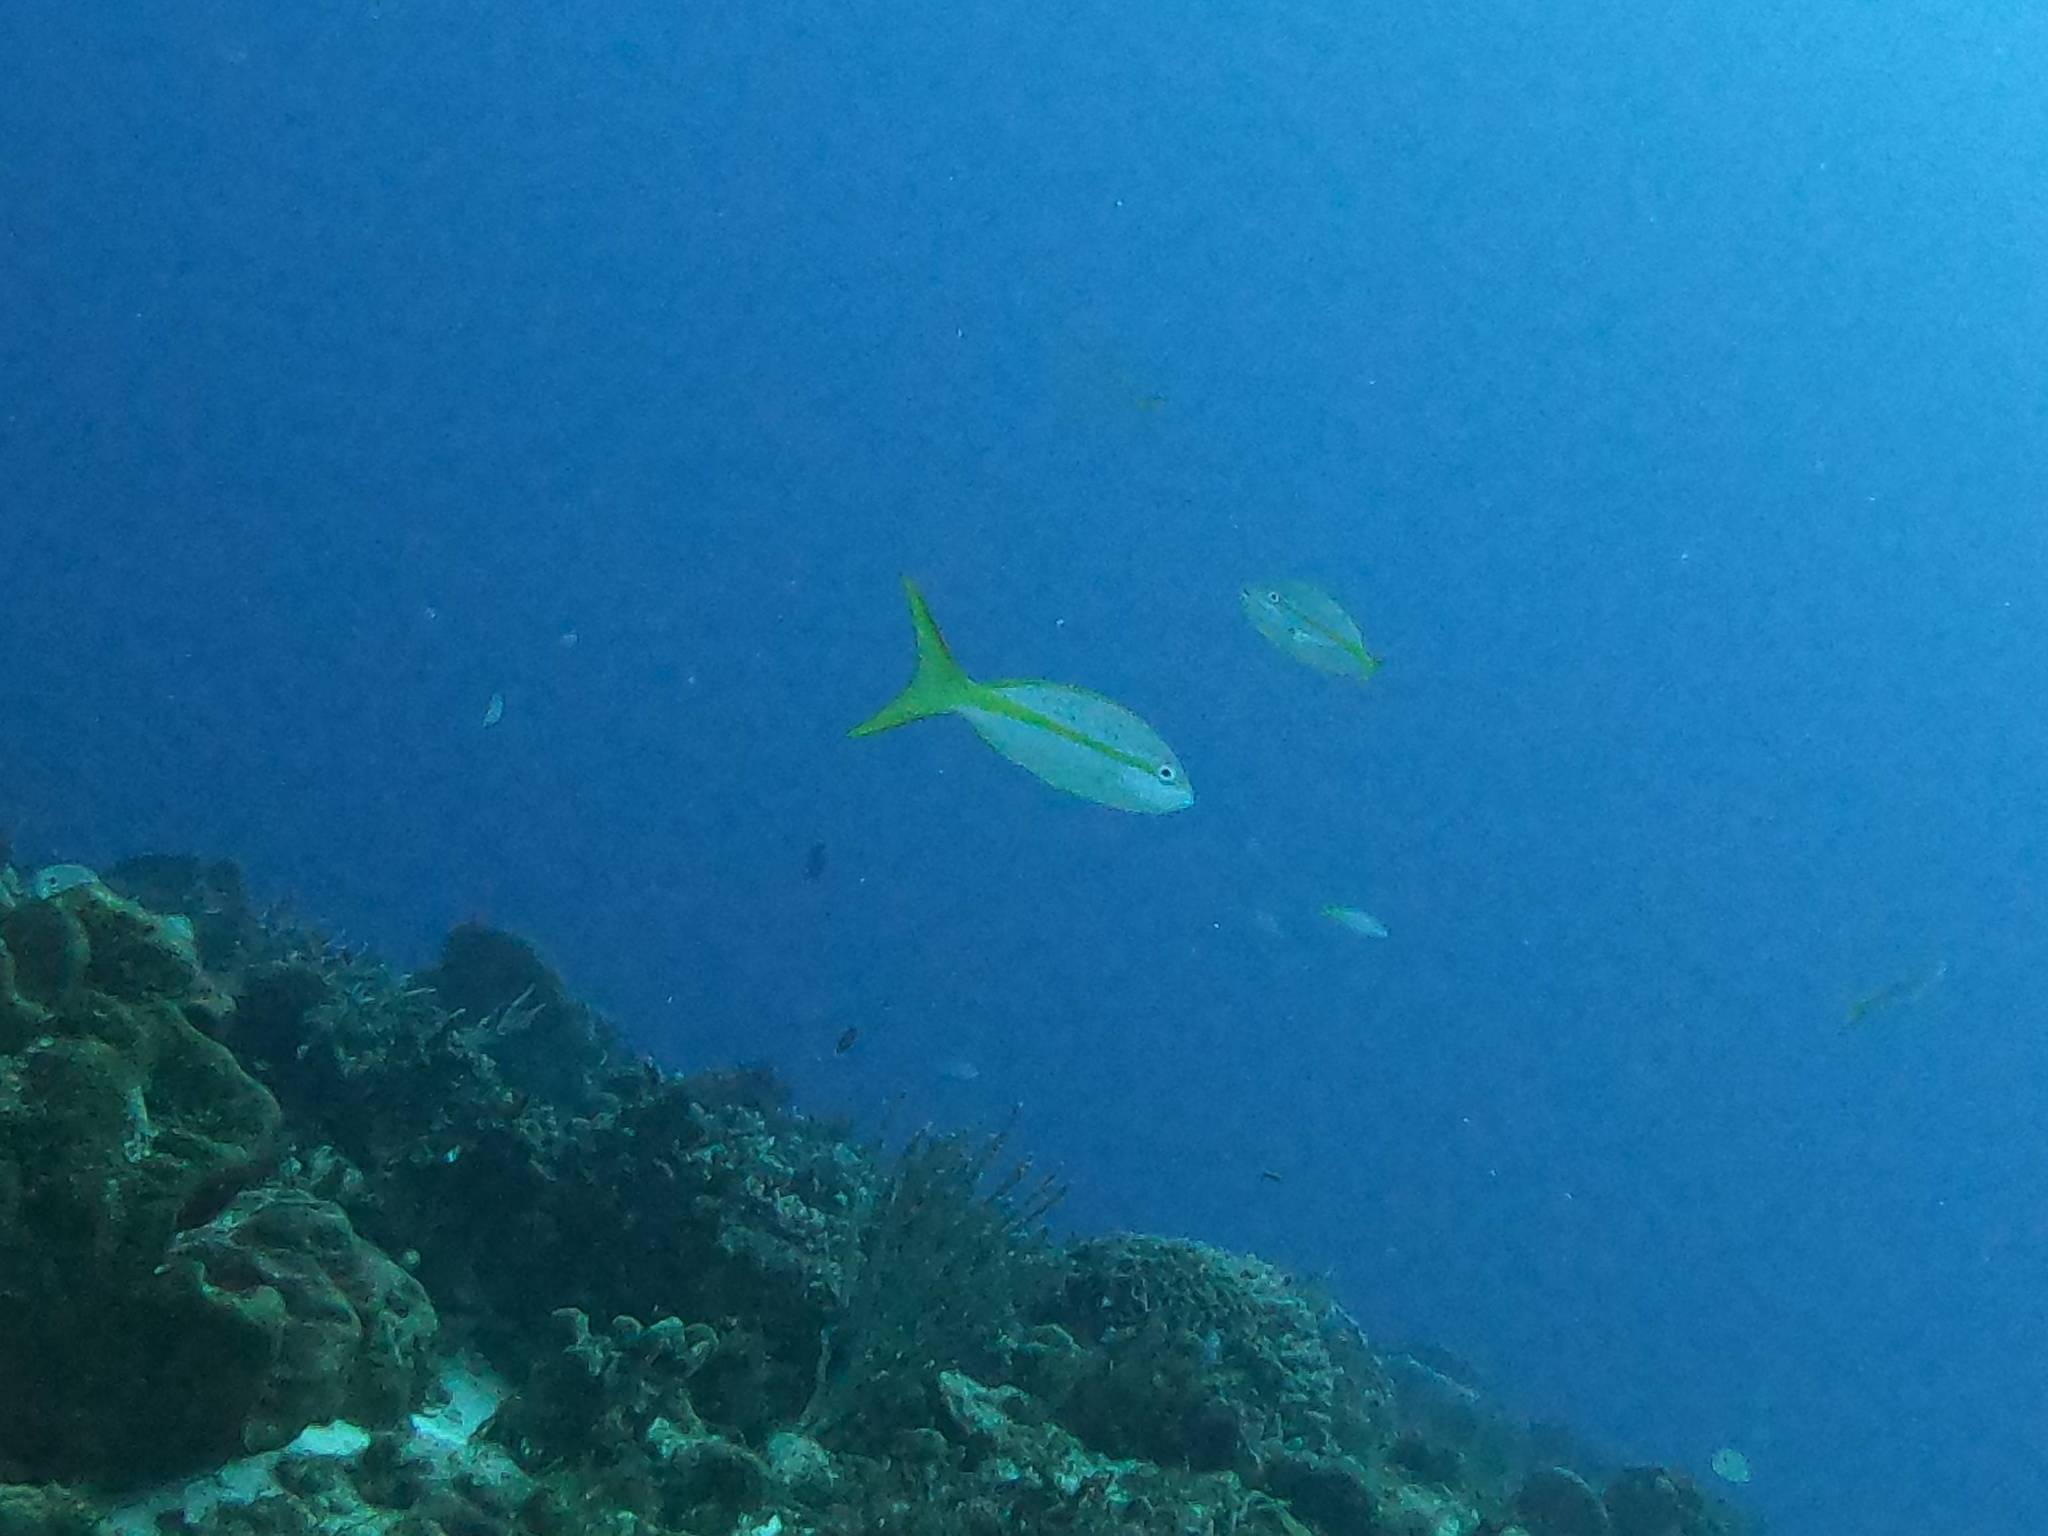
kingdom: Animalia
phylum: Chordata
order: Perciformes
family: Lutjanidae
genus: Ocyurus
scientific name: Ocyurus chrysurus
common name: Yellowtail snapper
